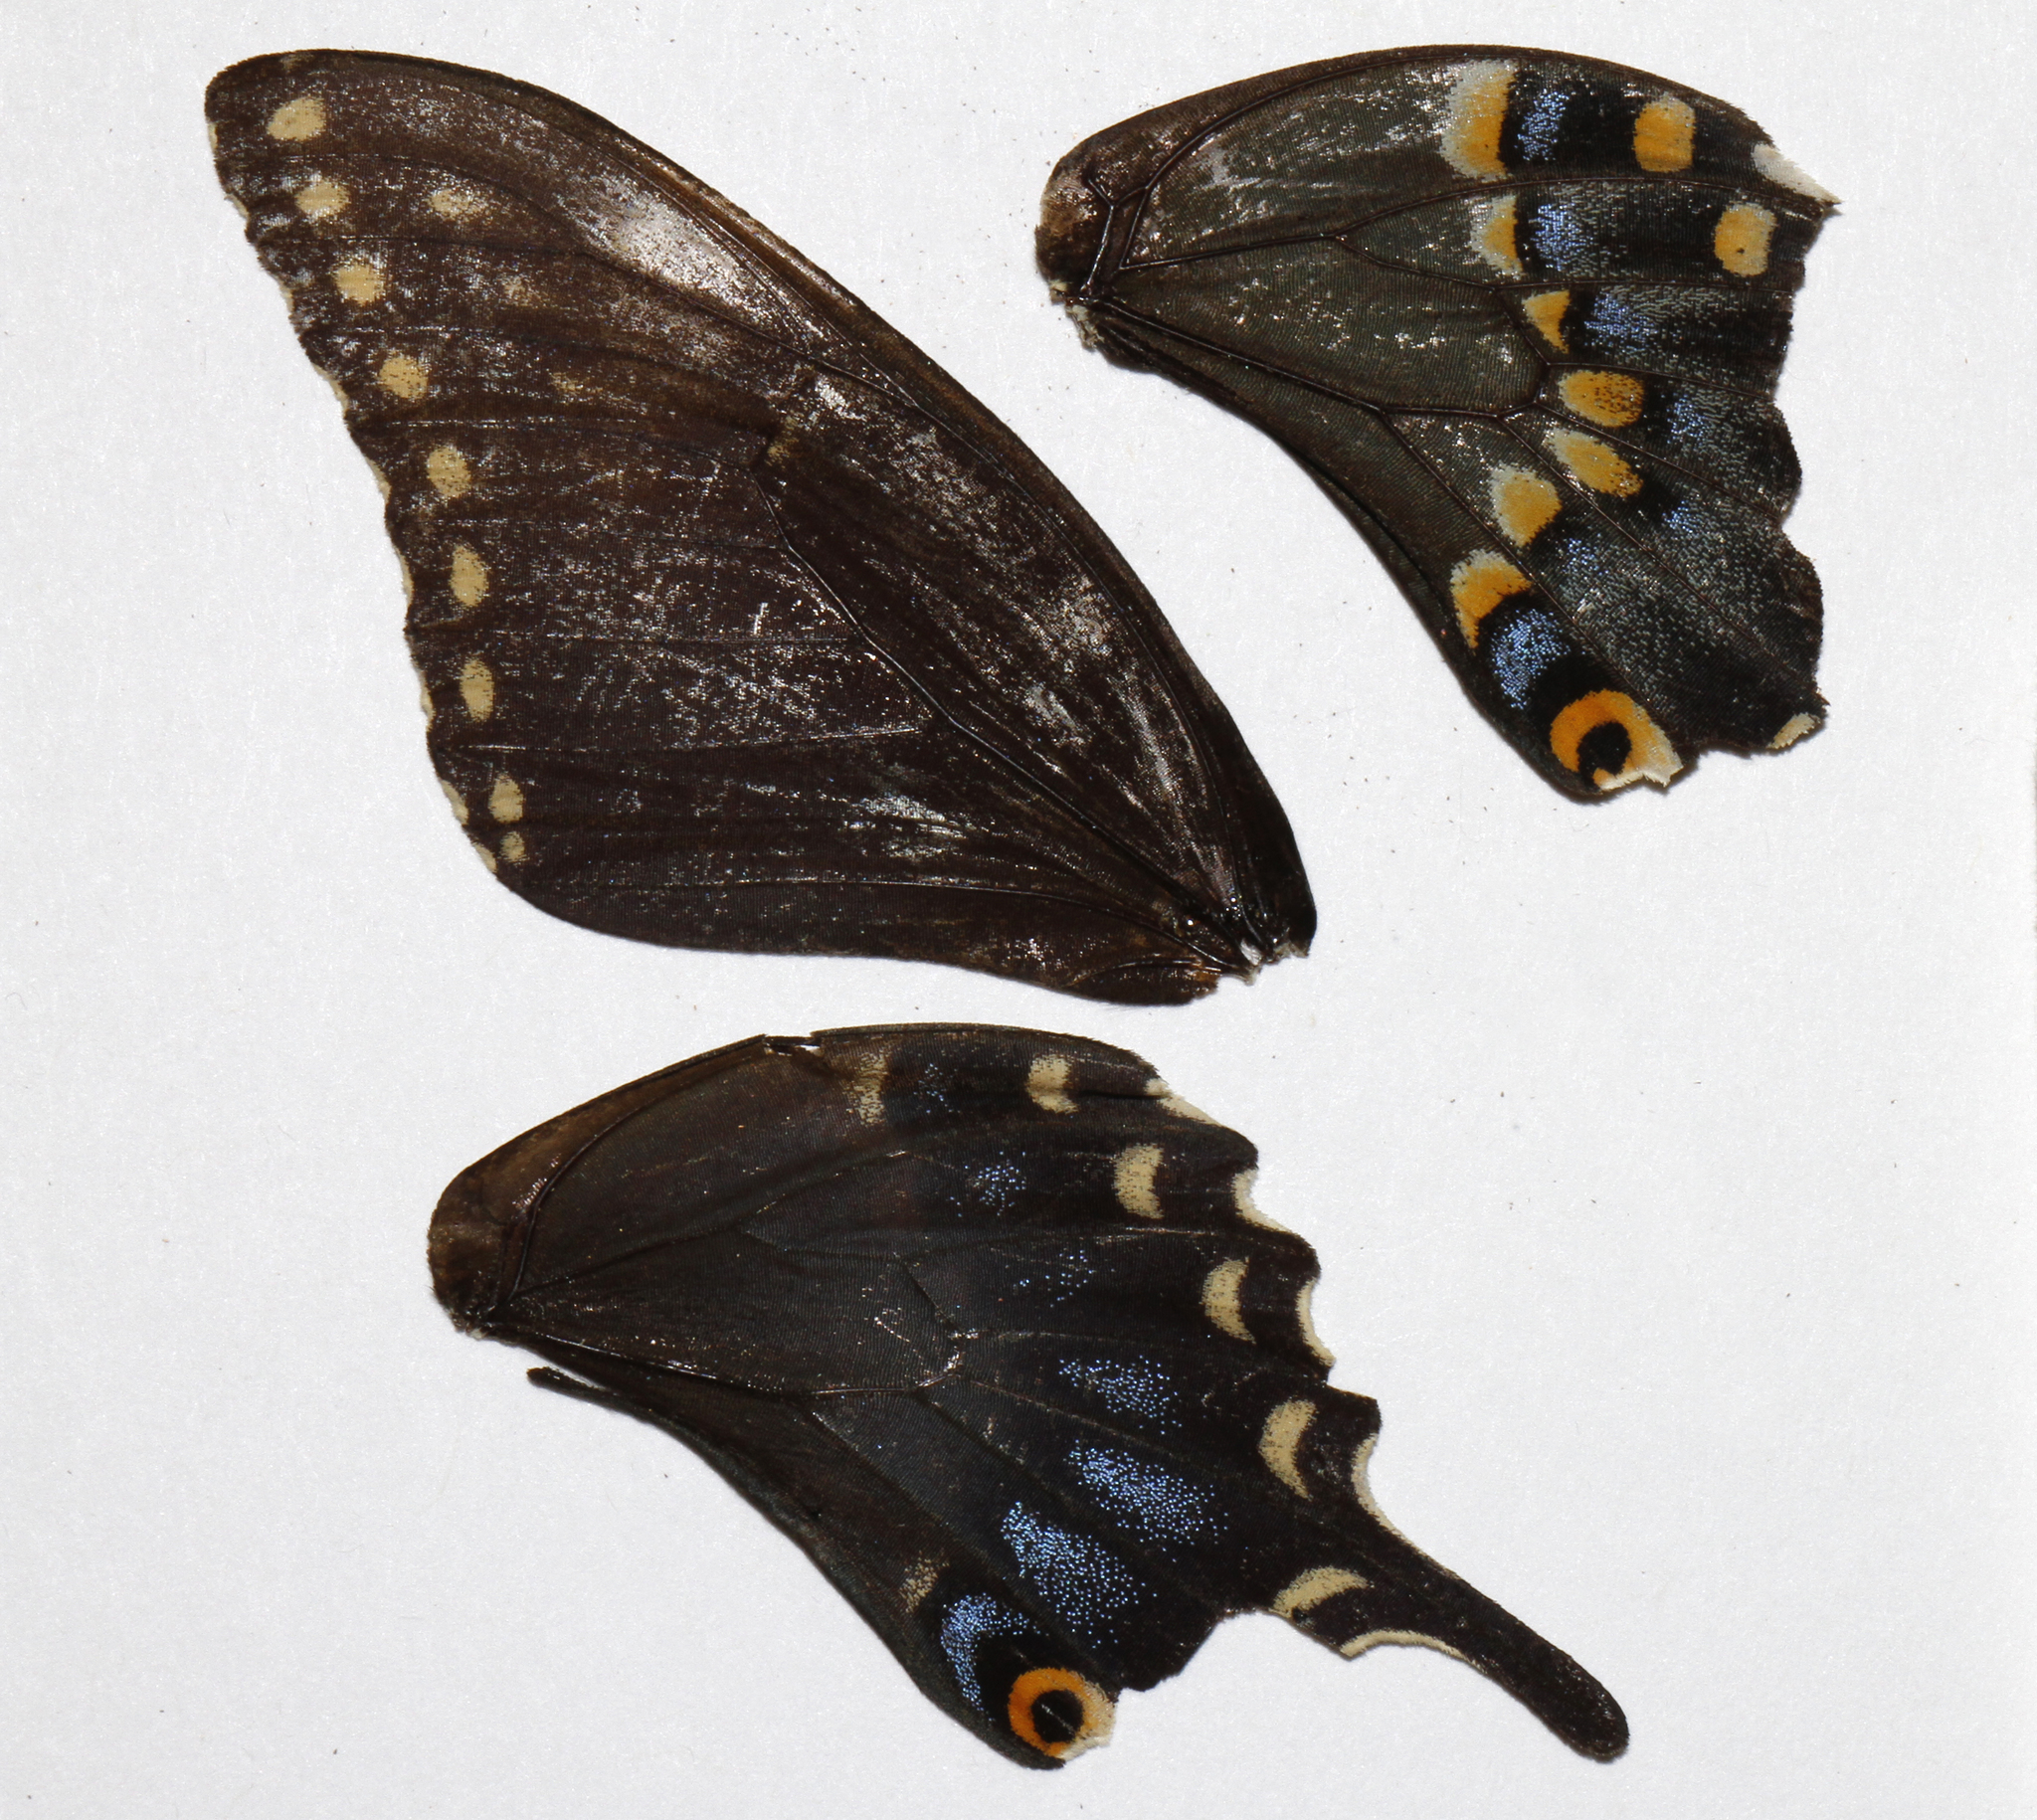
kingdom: Animalia
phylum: Arthropoda
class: Insecta
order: Lepidoptera
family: Papilionidae
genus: Papilio
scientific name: Papilio polyxenes
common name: Black swallowtail
